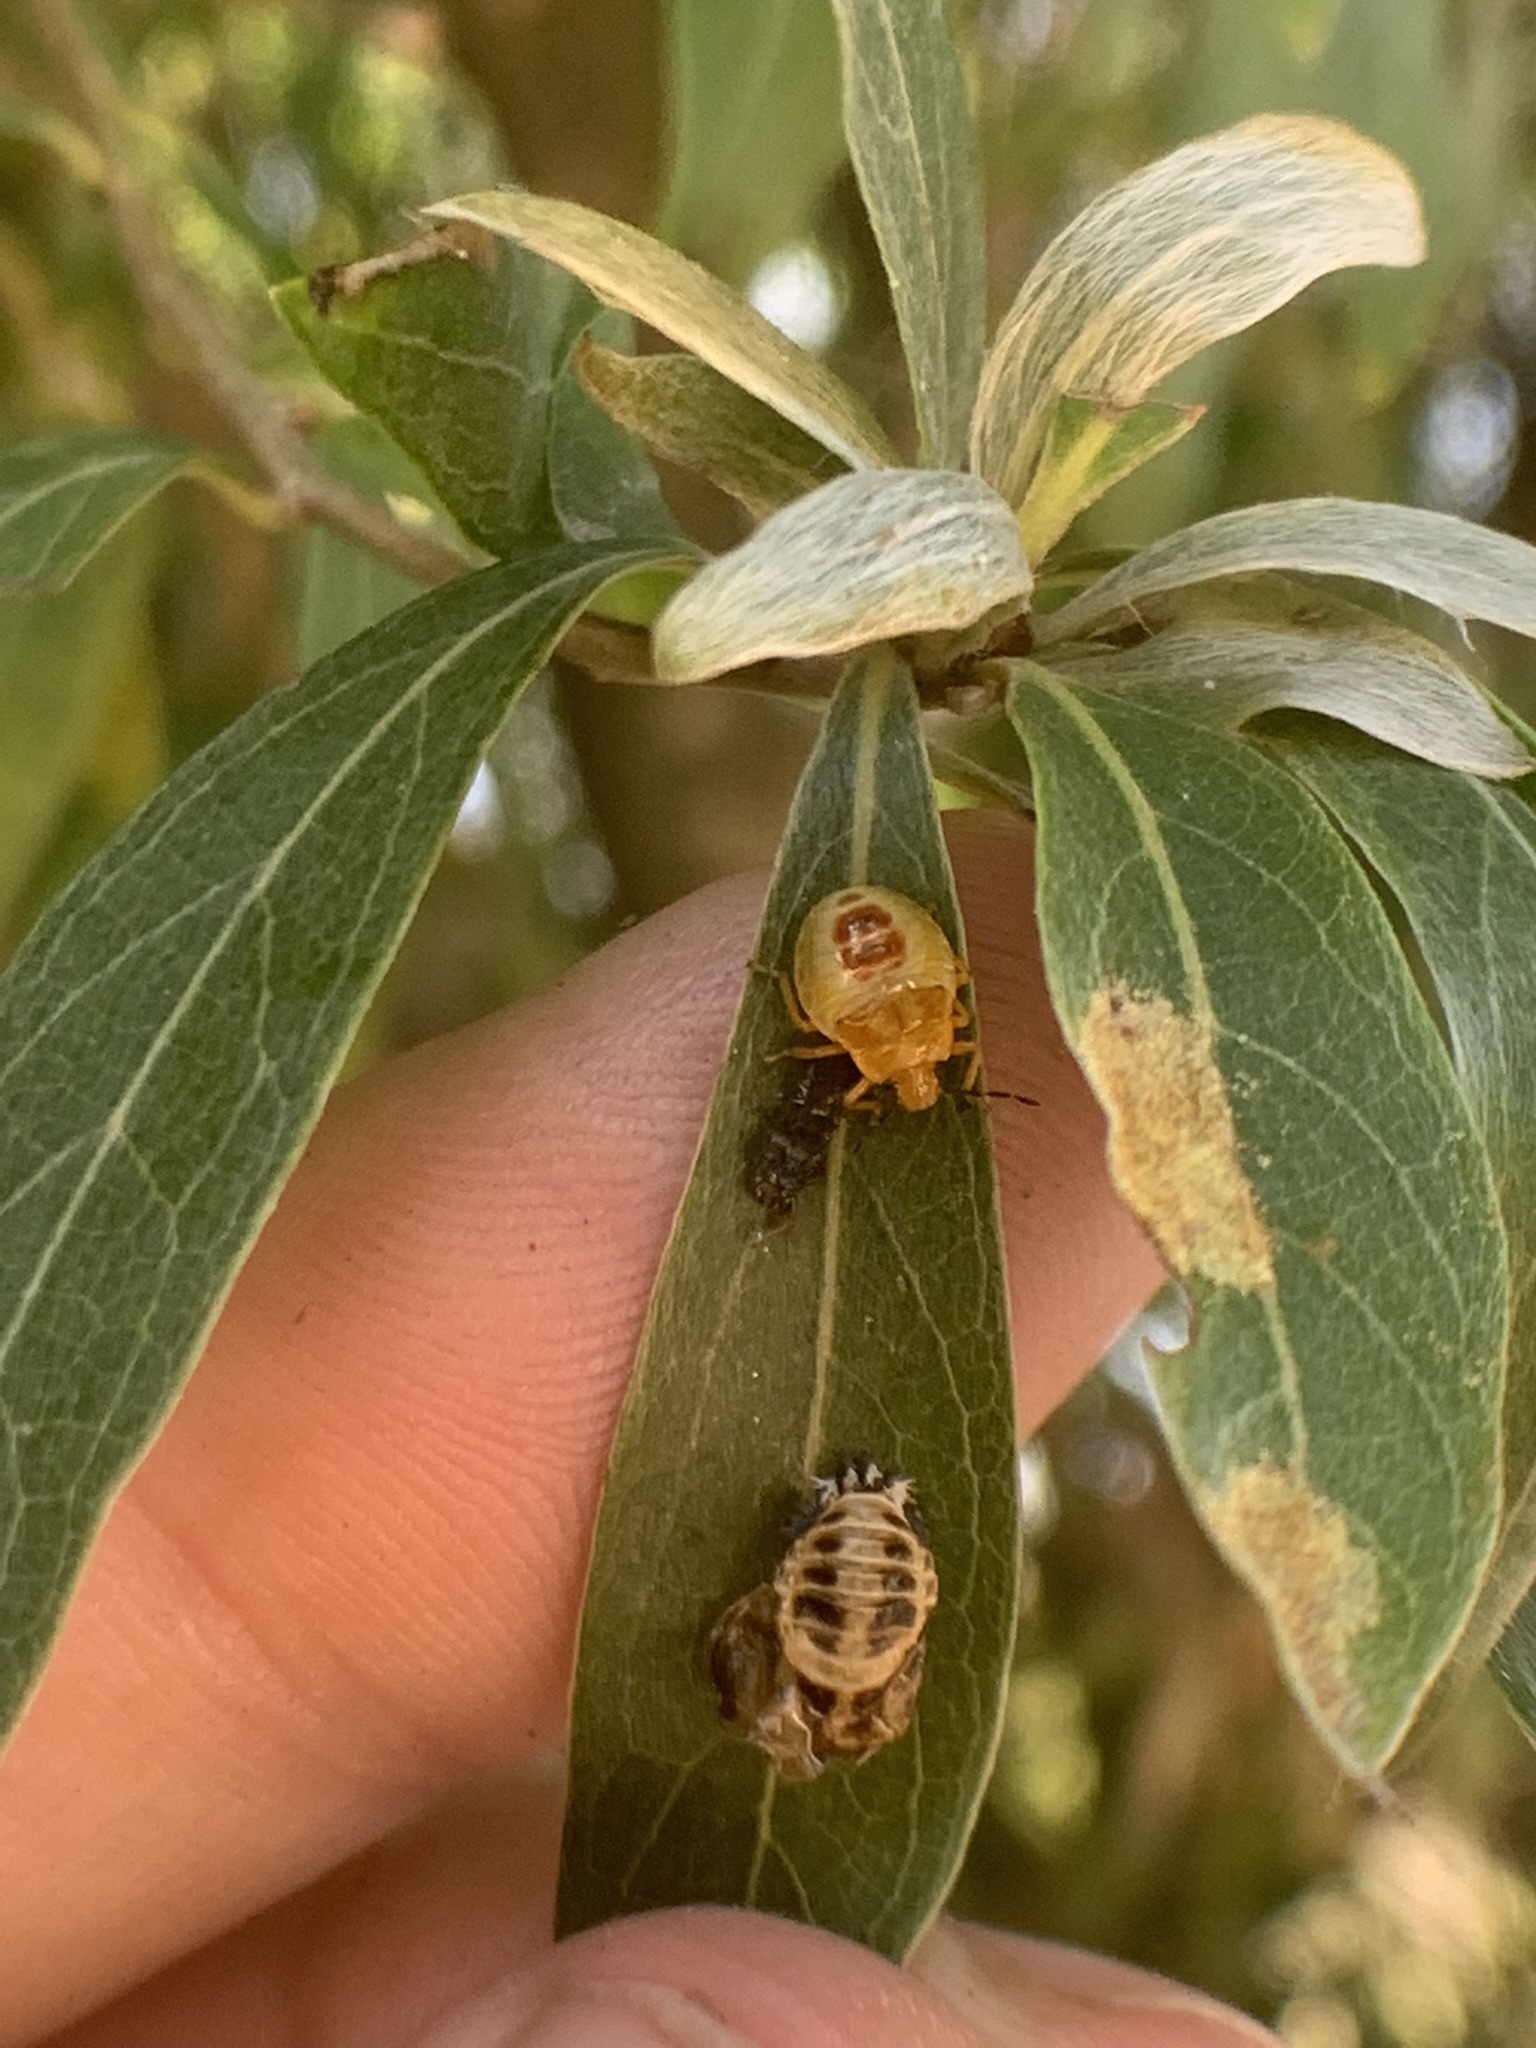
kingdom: Animalia
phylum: Arthropoda
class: Insecta
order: Coleoptera
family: Coccinellidae
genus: Harmonia
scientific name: Harmonia axyridis
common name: Harlequin ladybird
